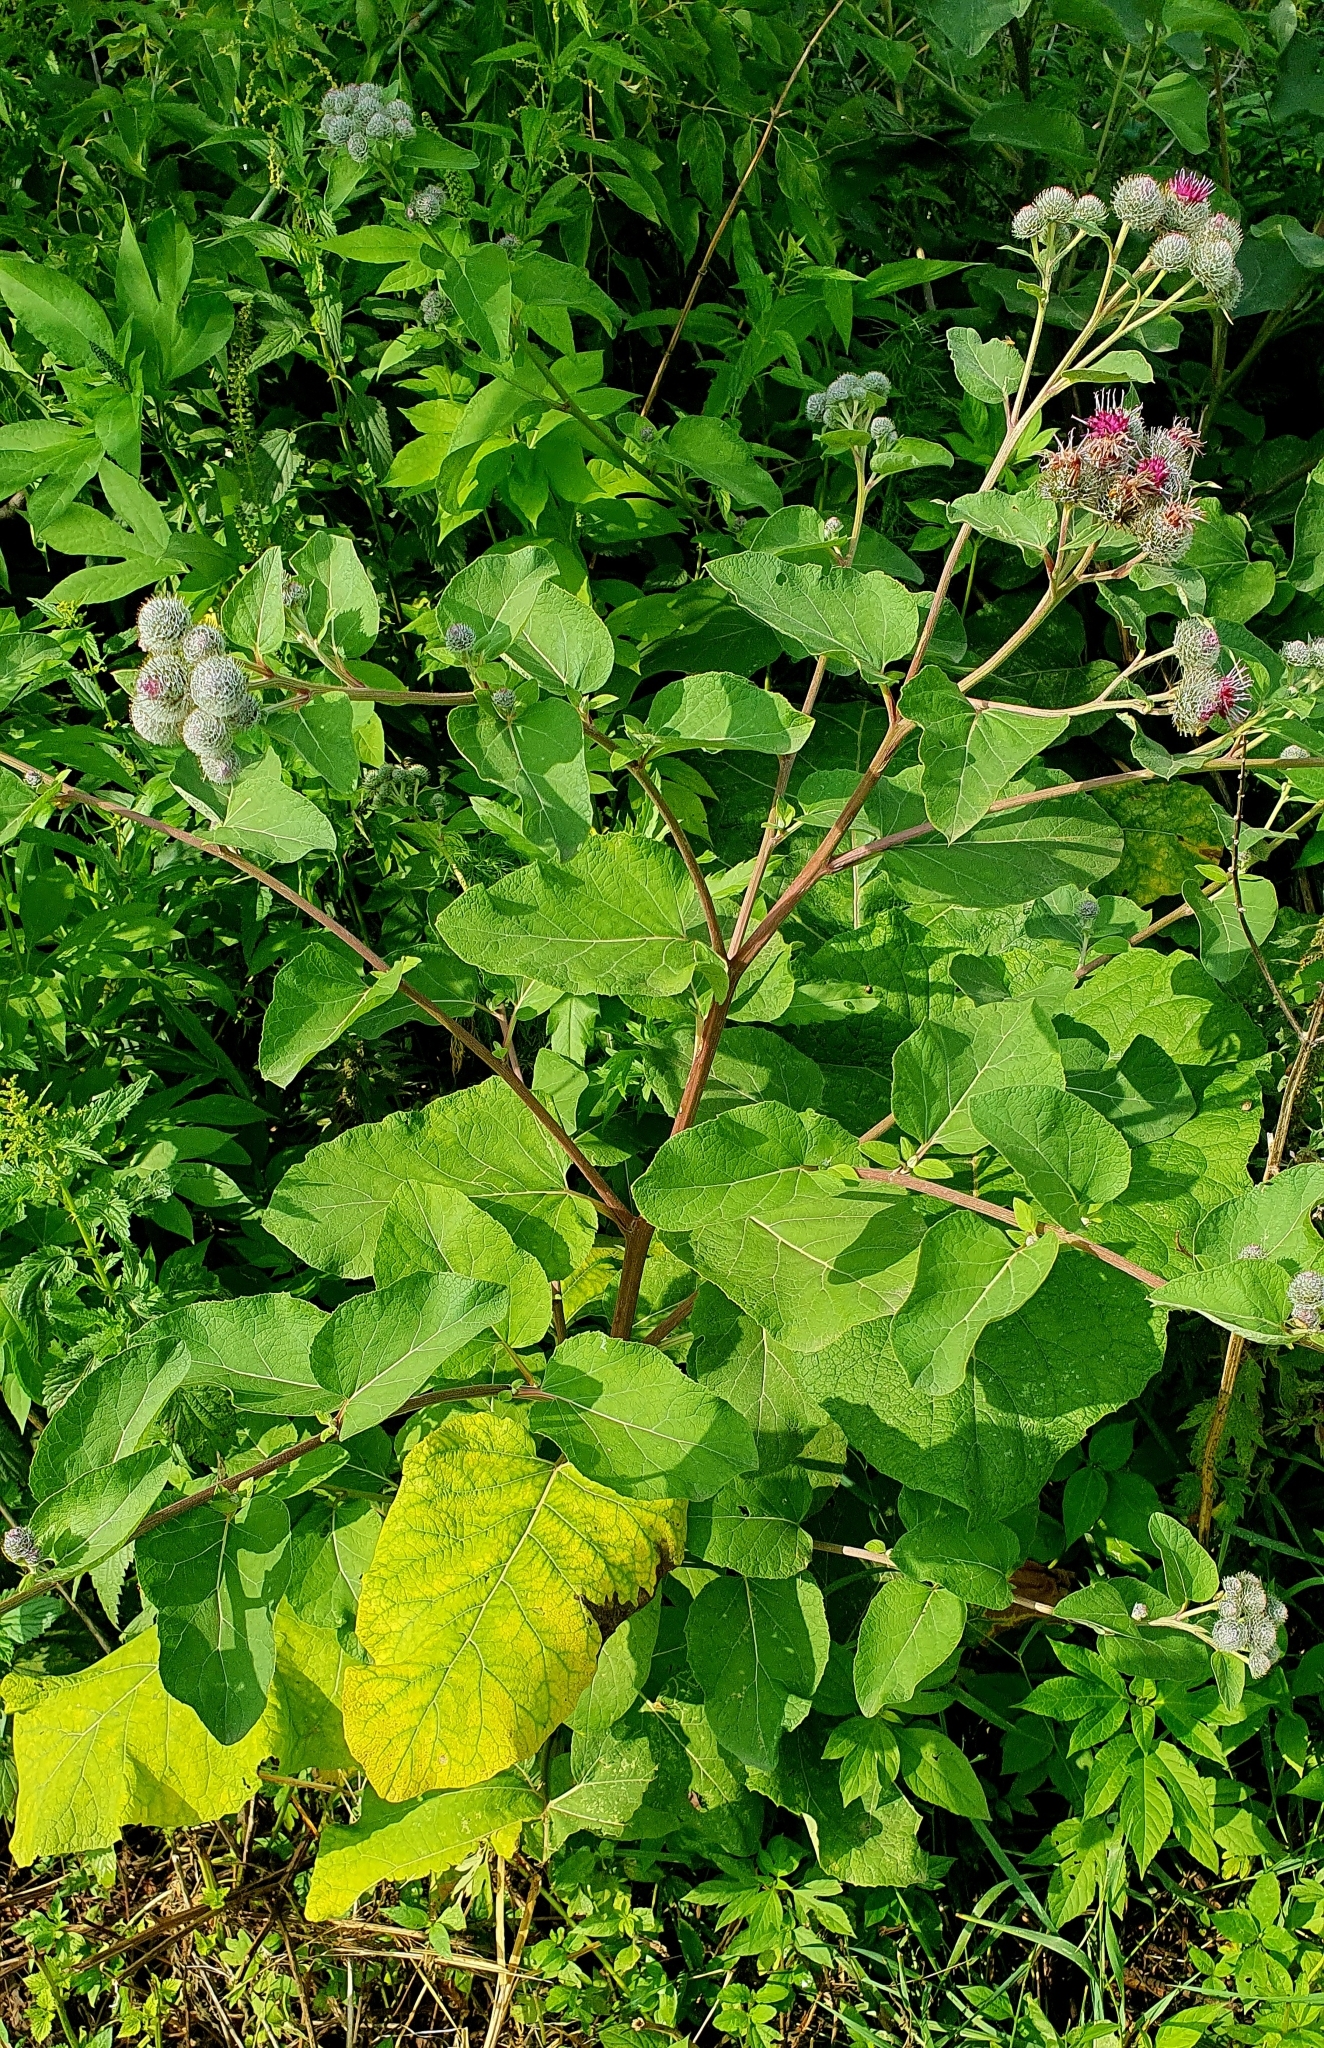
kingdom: Plantae
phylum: Tracheophyta
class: Magnoliopsida
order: Asterales
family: Asteraceae
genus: Arctium
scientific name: Arctium tomentosum
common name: Woolly burdock
